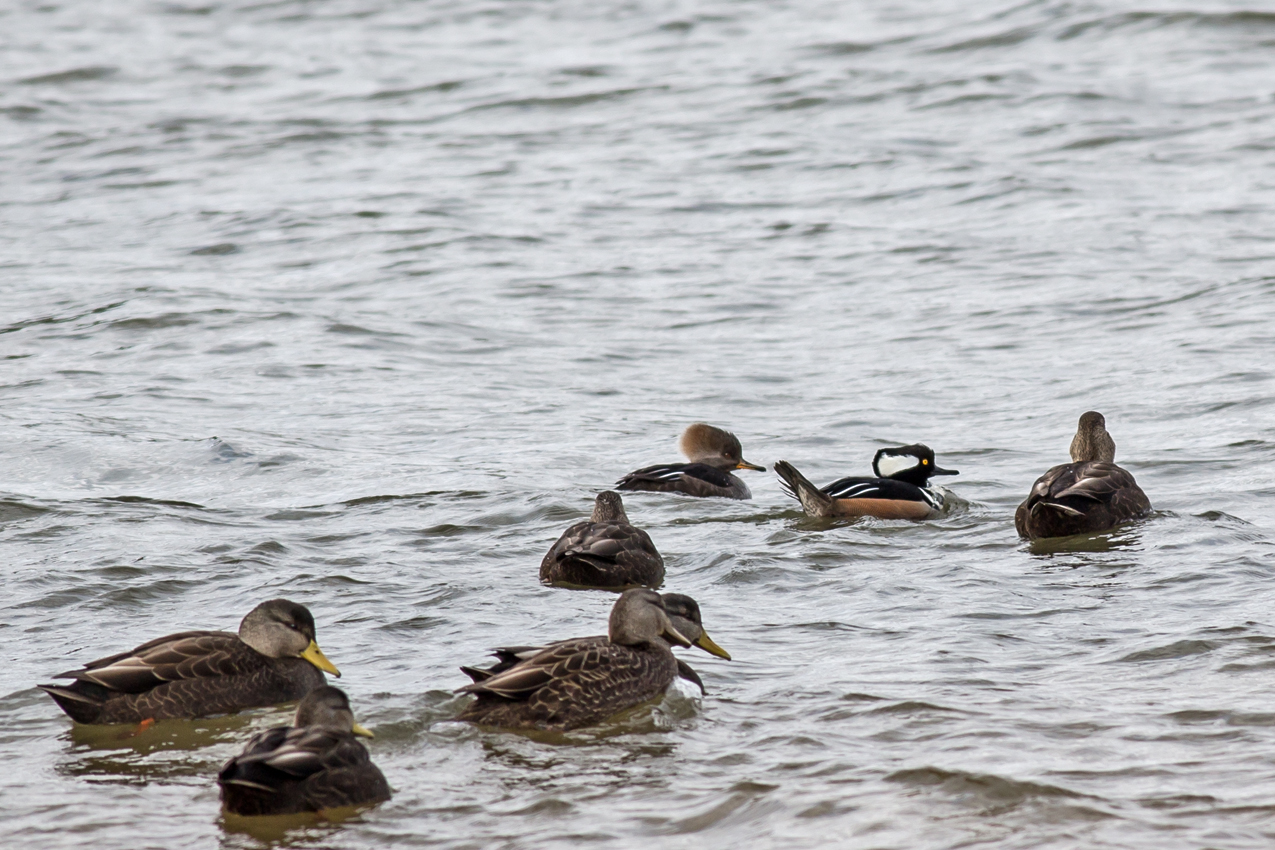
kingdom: Animalia
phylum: Chordata
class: Aves
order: Anseriformes
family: Anatidae
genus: Lophodytes
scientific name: Lophodytes cucullatus
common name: Hooded merganser
